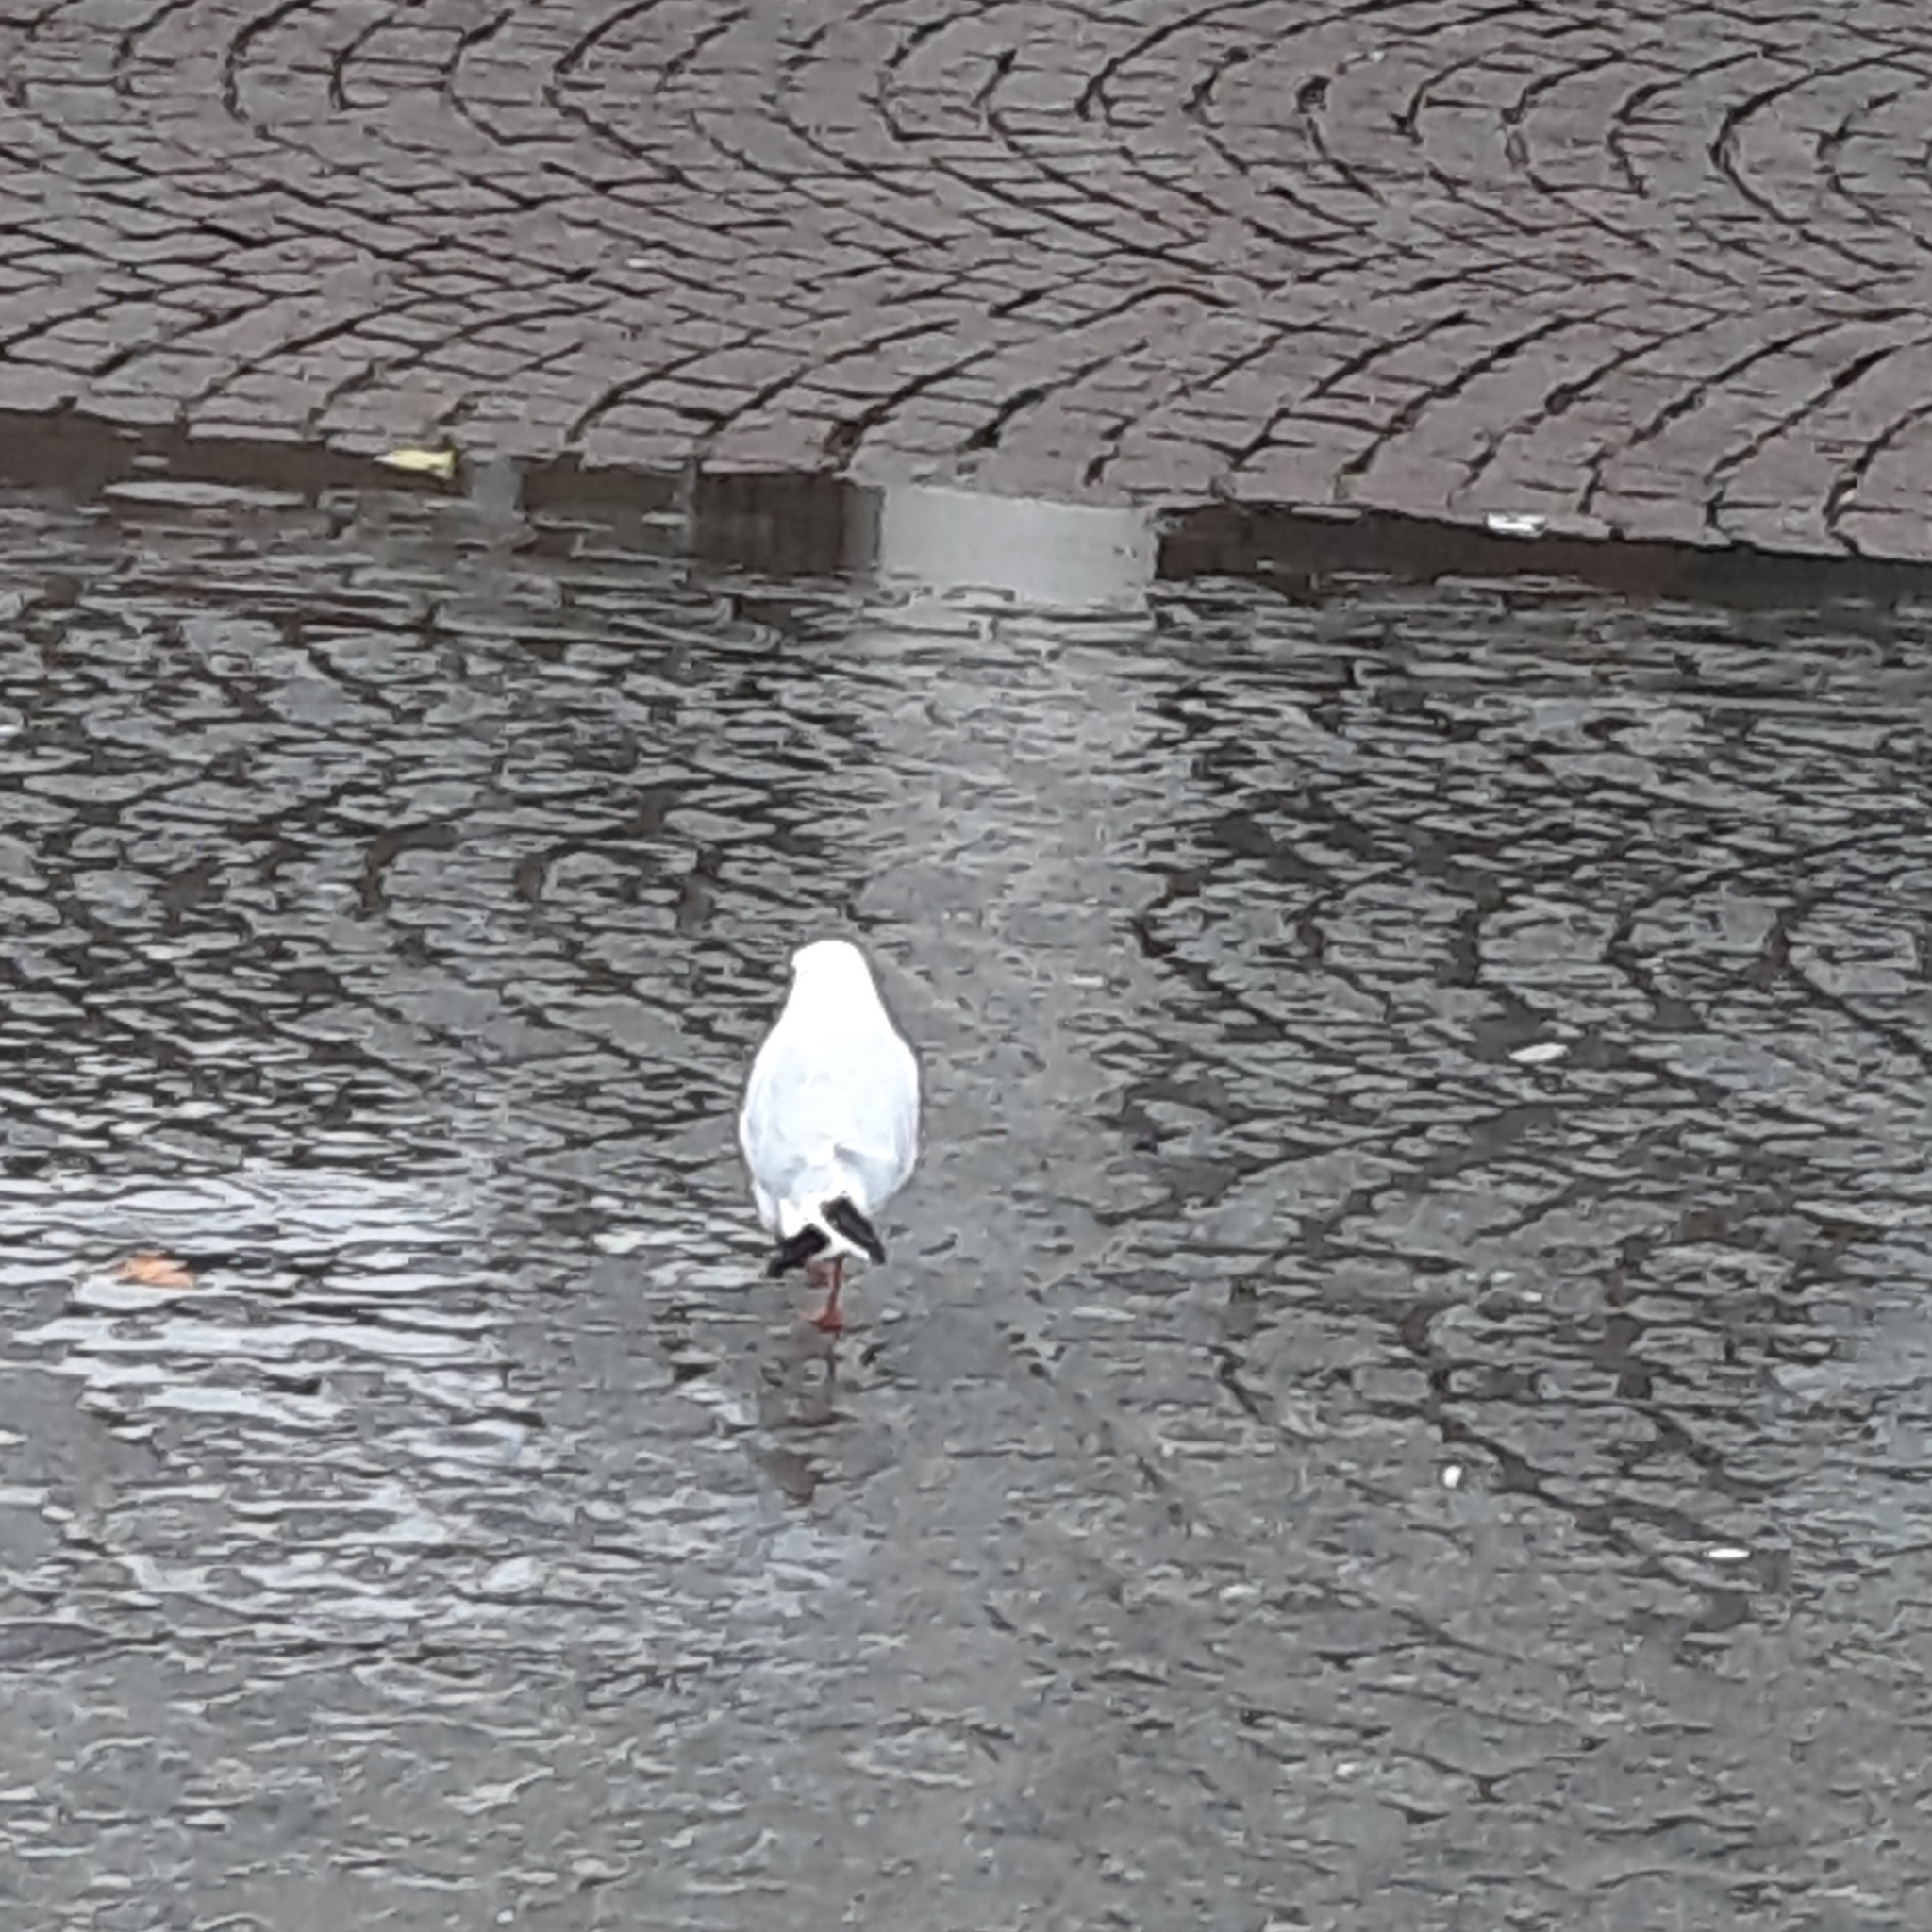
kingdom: Animalia
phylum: Chordata
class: Aves
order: Charadriiformes
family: Laridae
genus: Chroicocephalus
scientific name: Chroicocephalus ridibundus
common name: Black-headed gull
